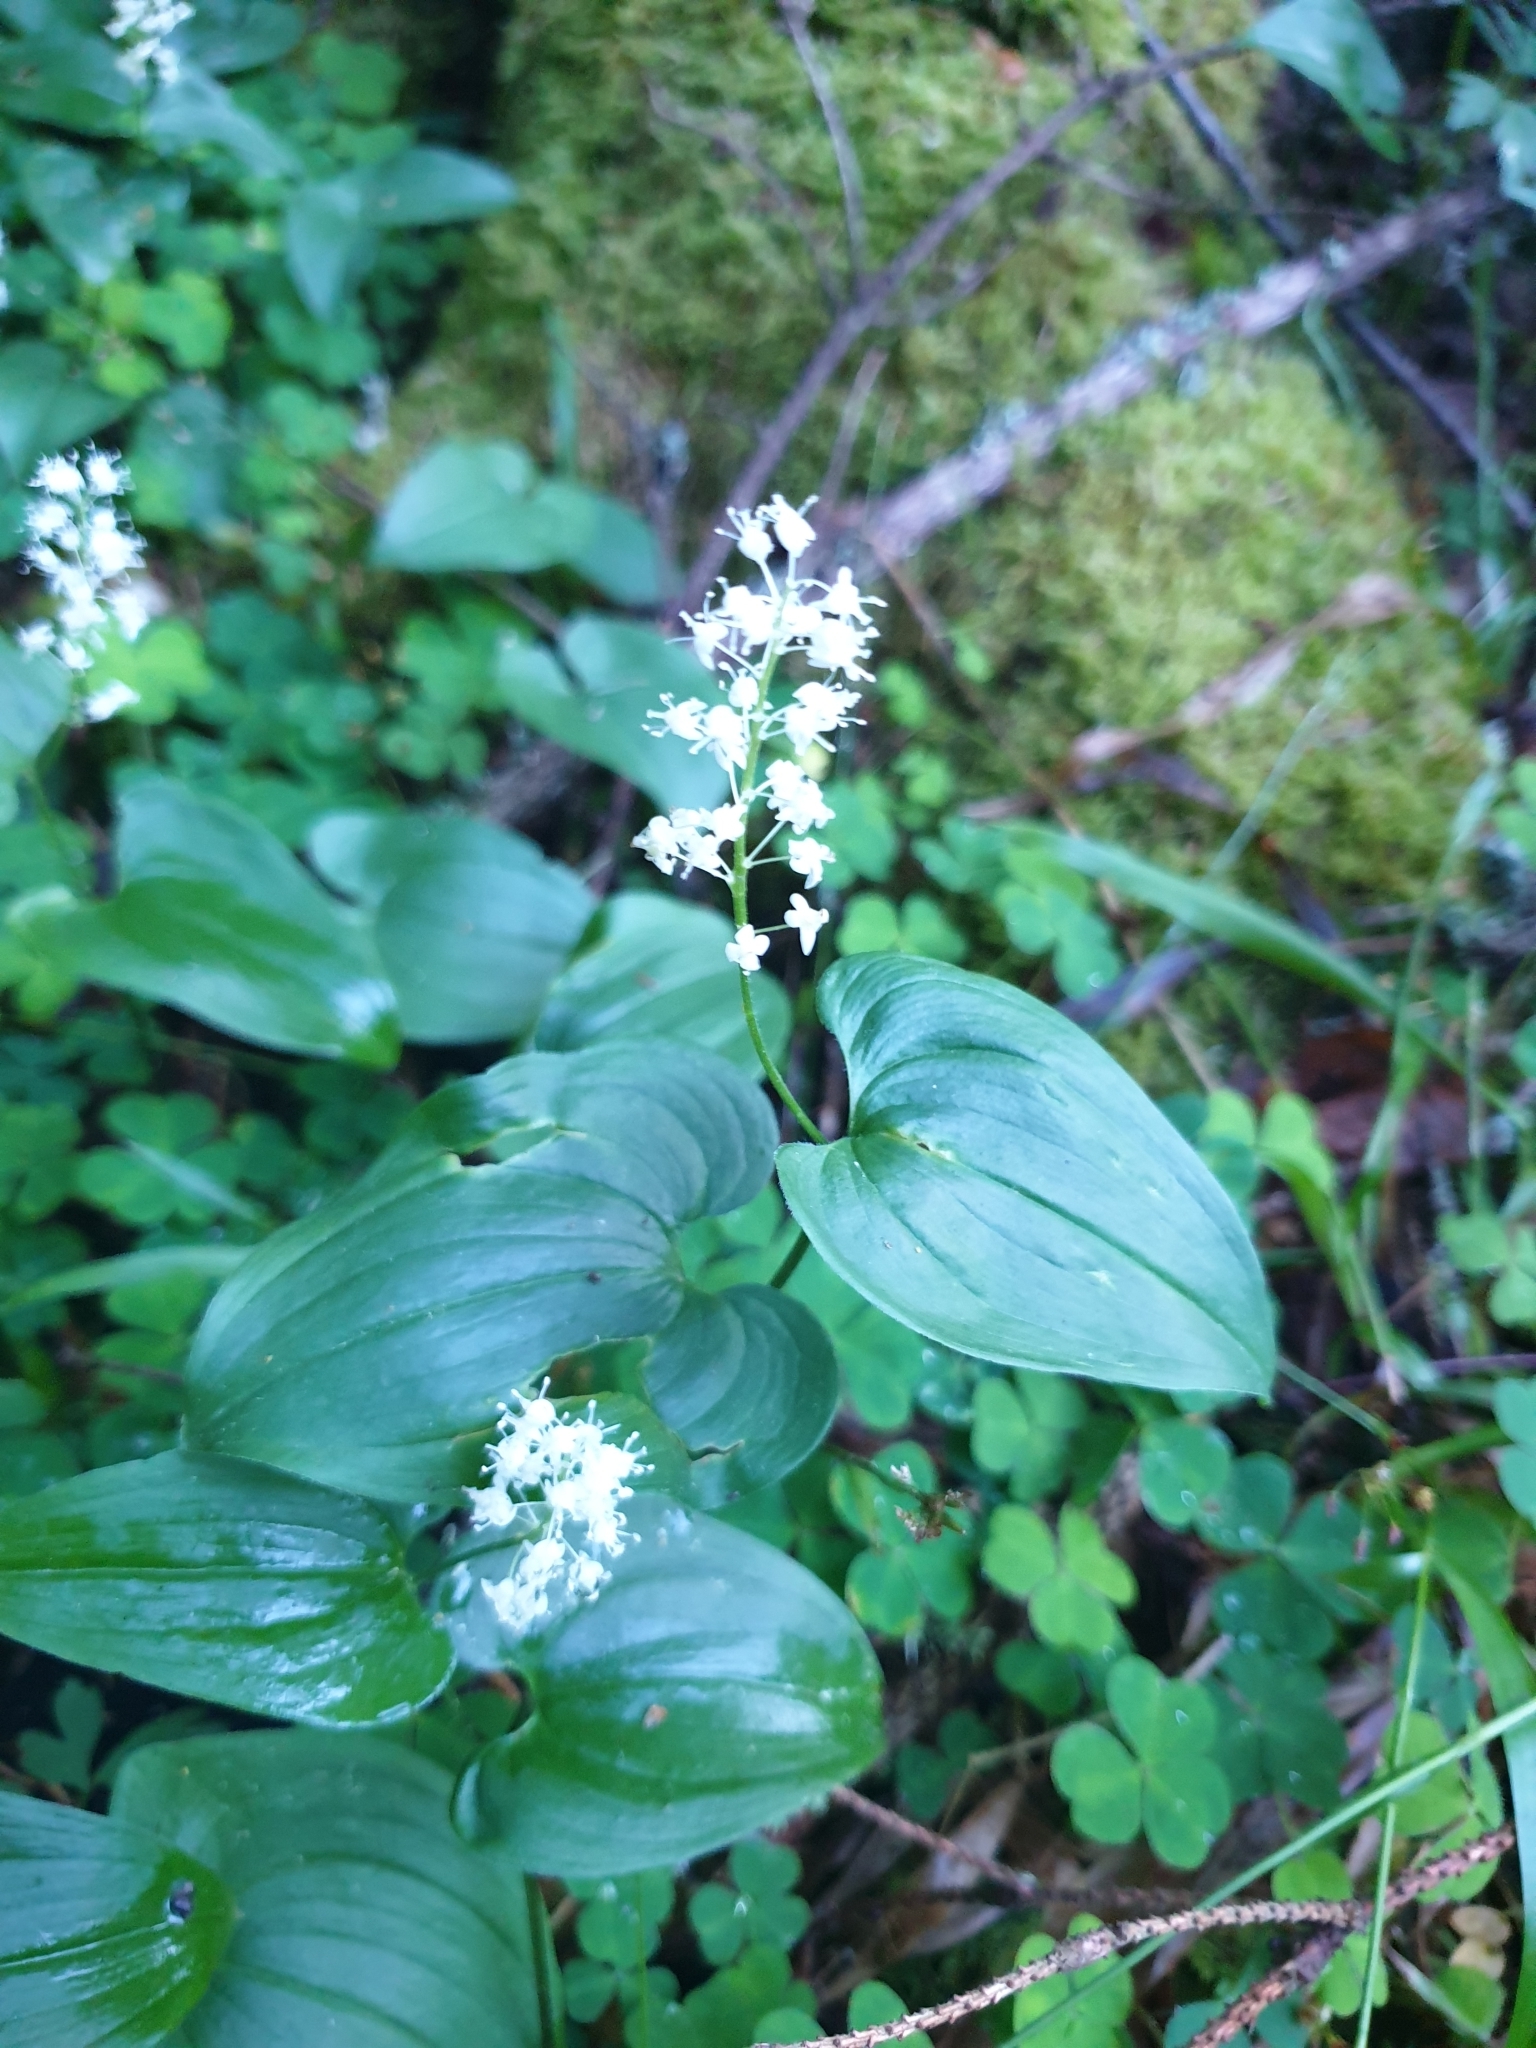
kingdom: Plantae
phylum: Tracheophyta
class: Liliopsida
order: Asparagales
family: Asparagaceae
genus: Maianthemum
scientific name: Maianthemum bifolium
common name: May lily
